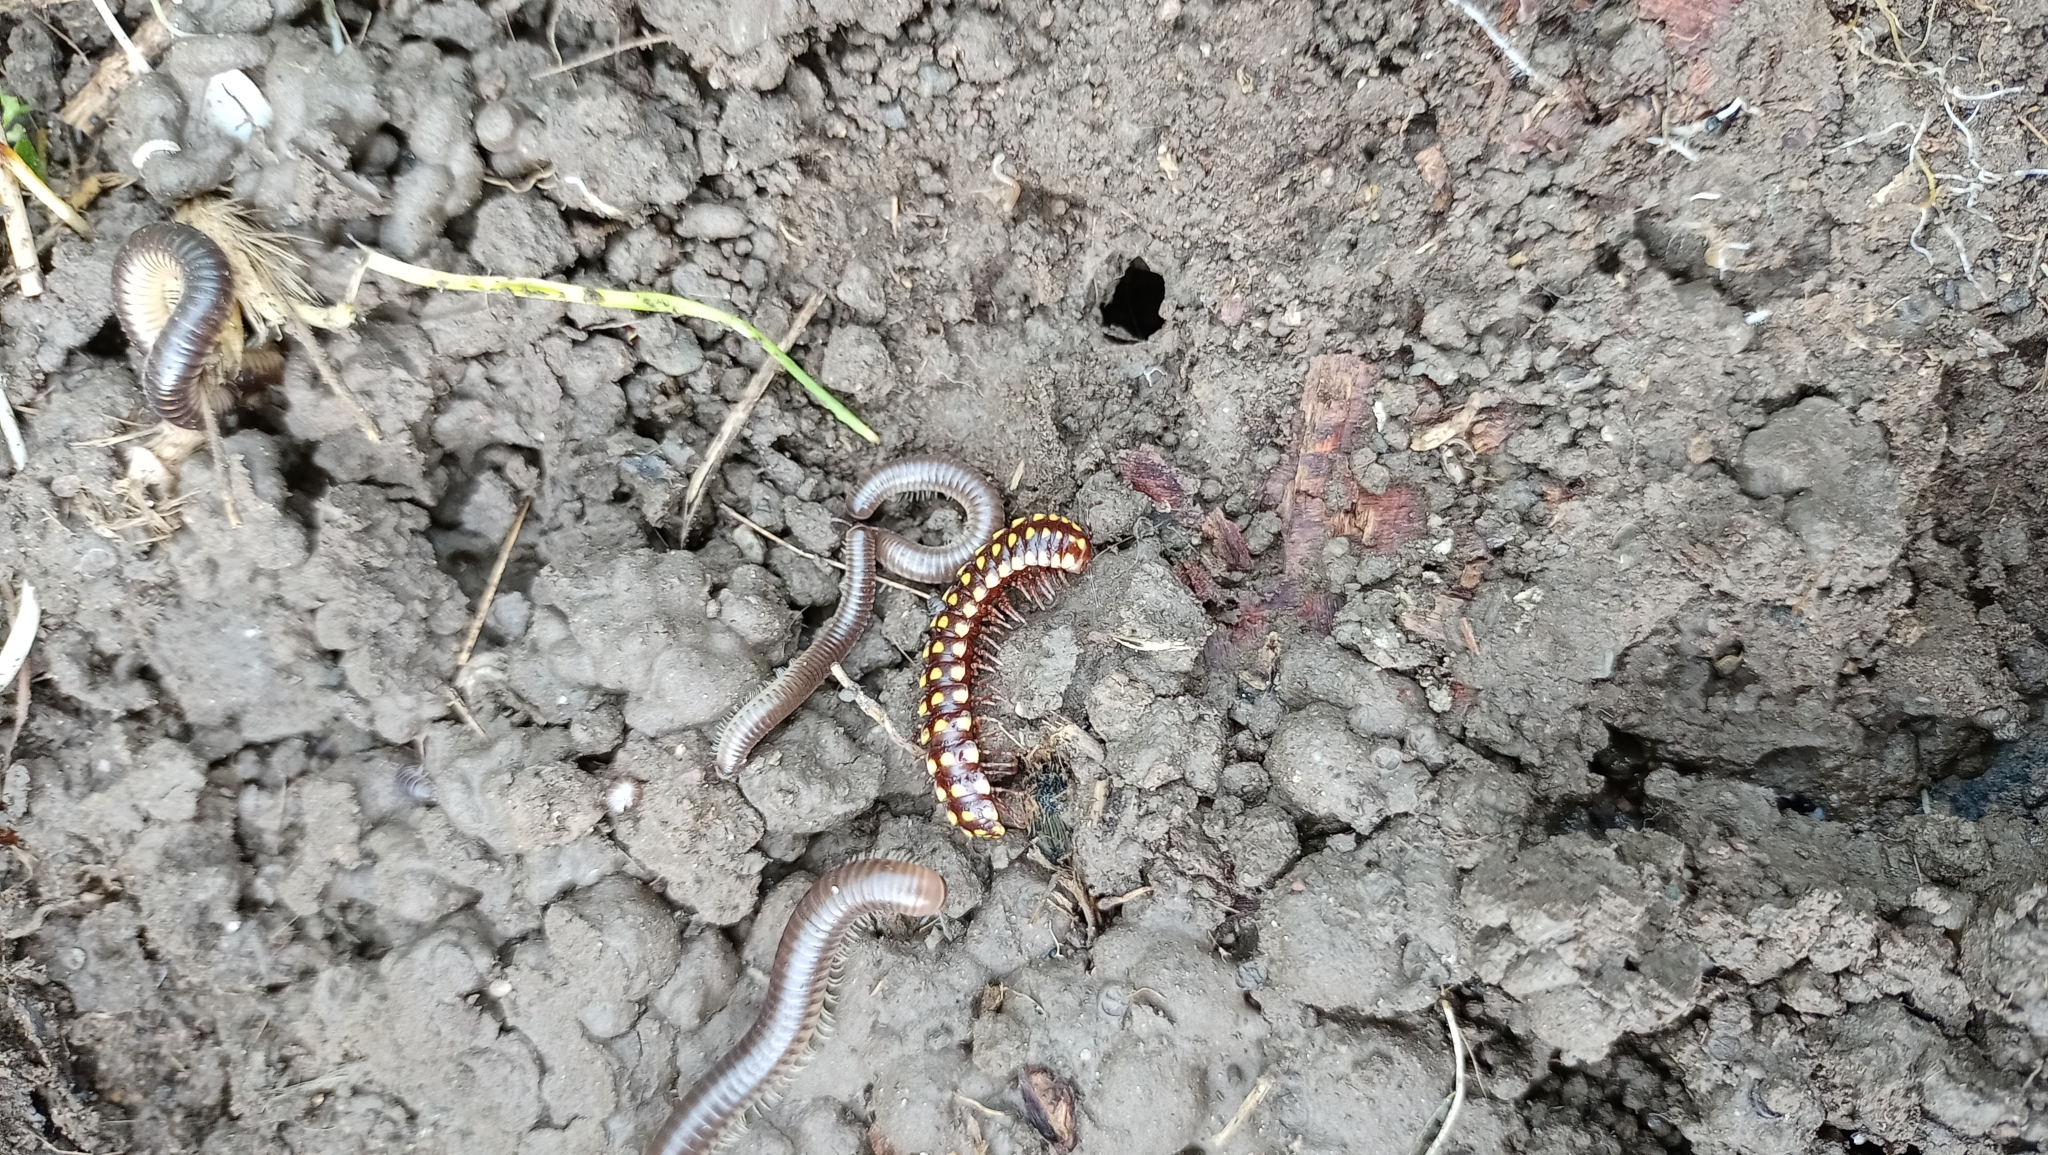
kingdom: Animalia
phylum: Arthropoda
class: Diplopoda
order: Julida
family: Julidae
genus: Pachyiulus
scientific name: Pachyiulus flavipes
